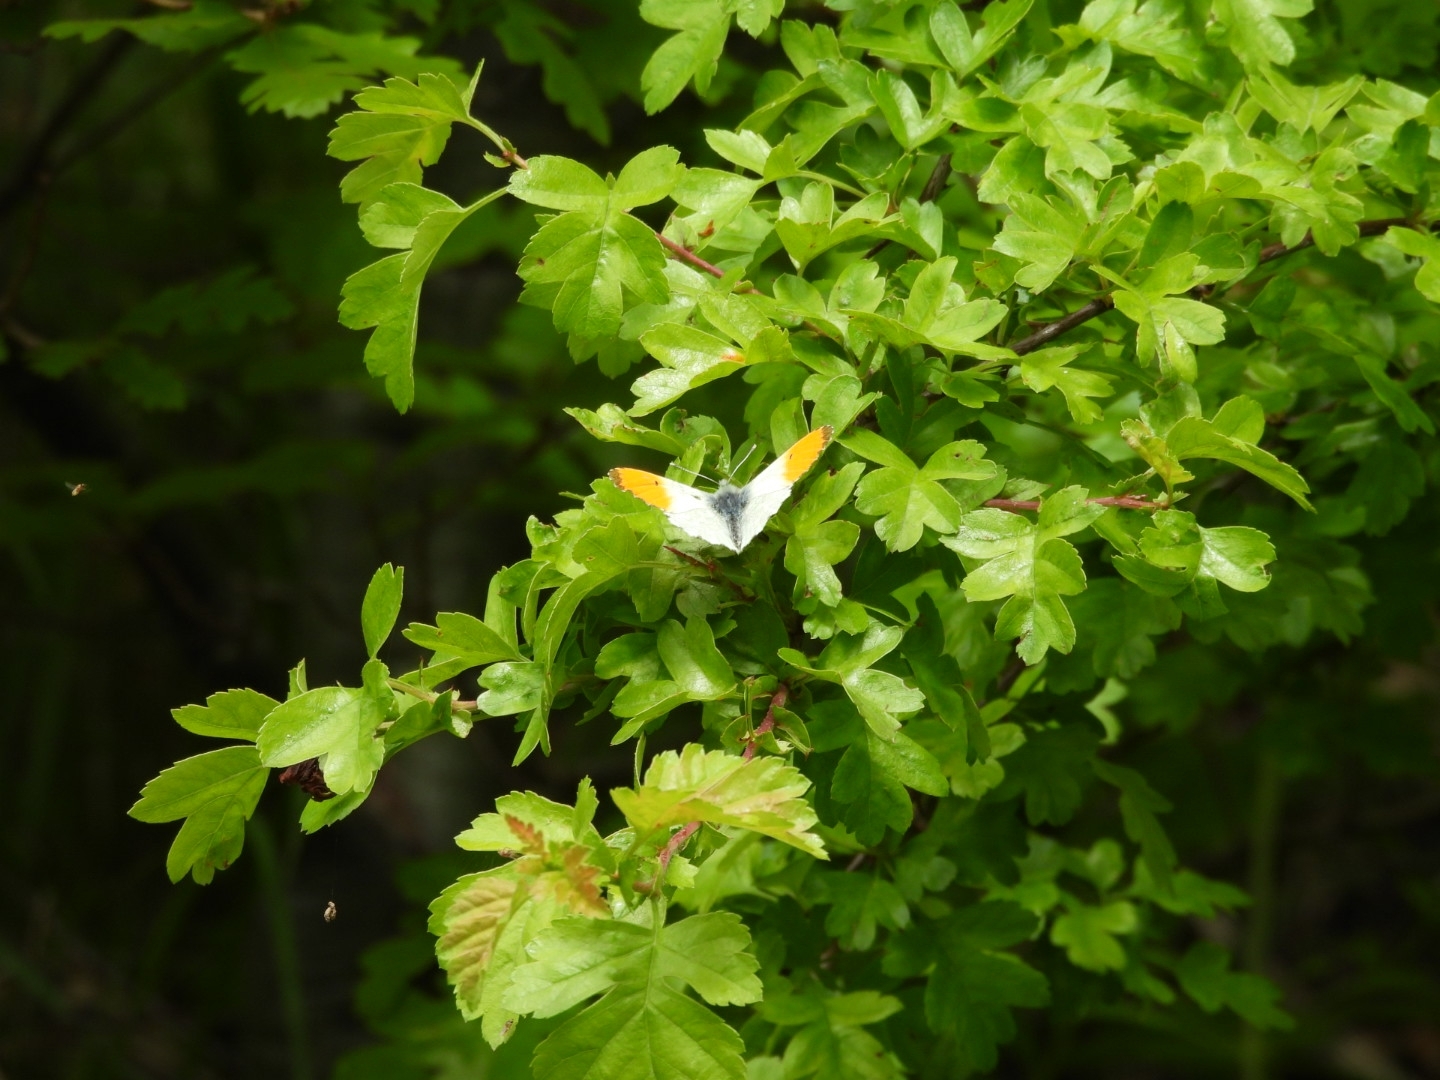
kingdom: Animalia
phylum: Arthropoda
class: Insecta
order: Lepidoptera
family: Pieridae
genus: Anthocharis
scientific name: Anthocharis cardamines
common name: Orange-tip
